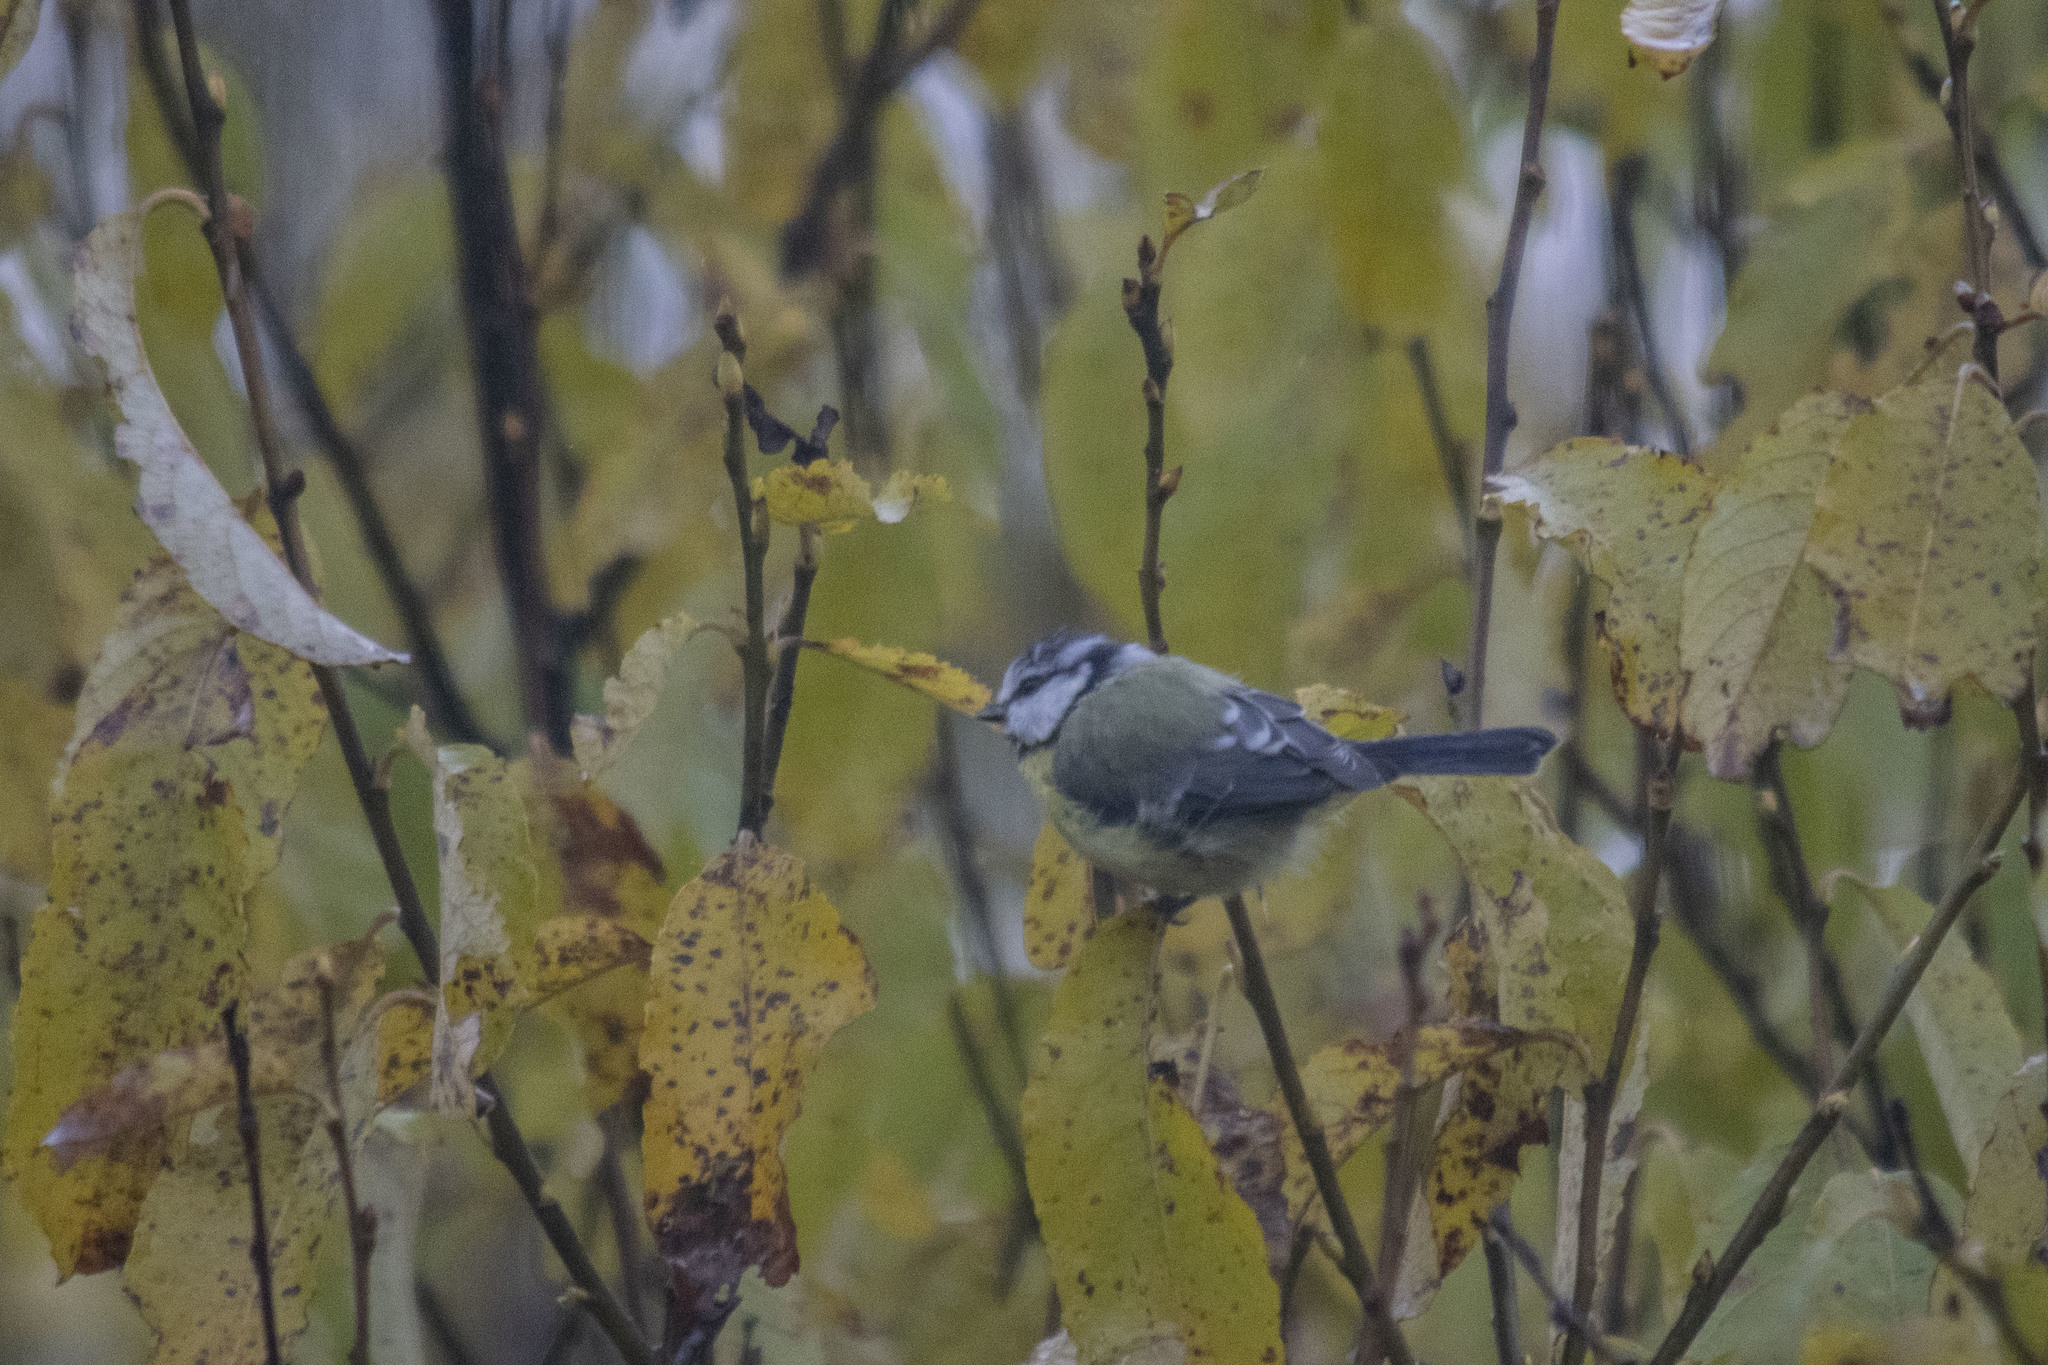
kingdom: Animalia
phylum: Chordata
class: Aves
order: Passeriformes
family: Paridae
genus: Cyanistes
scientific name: Cyanistes caeruleus
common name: Eurasian blue tit
